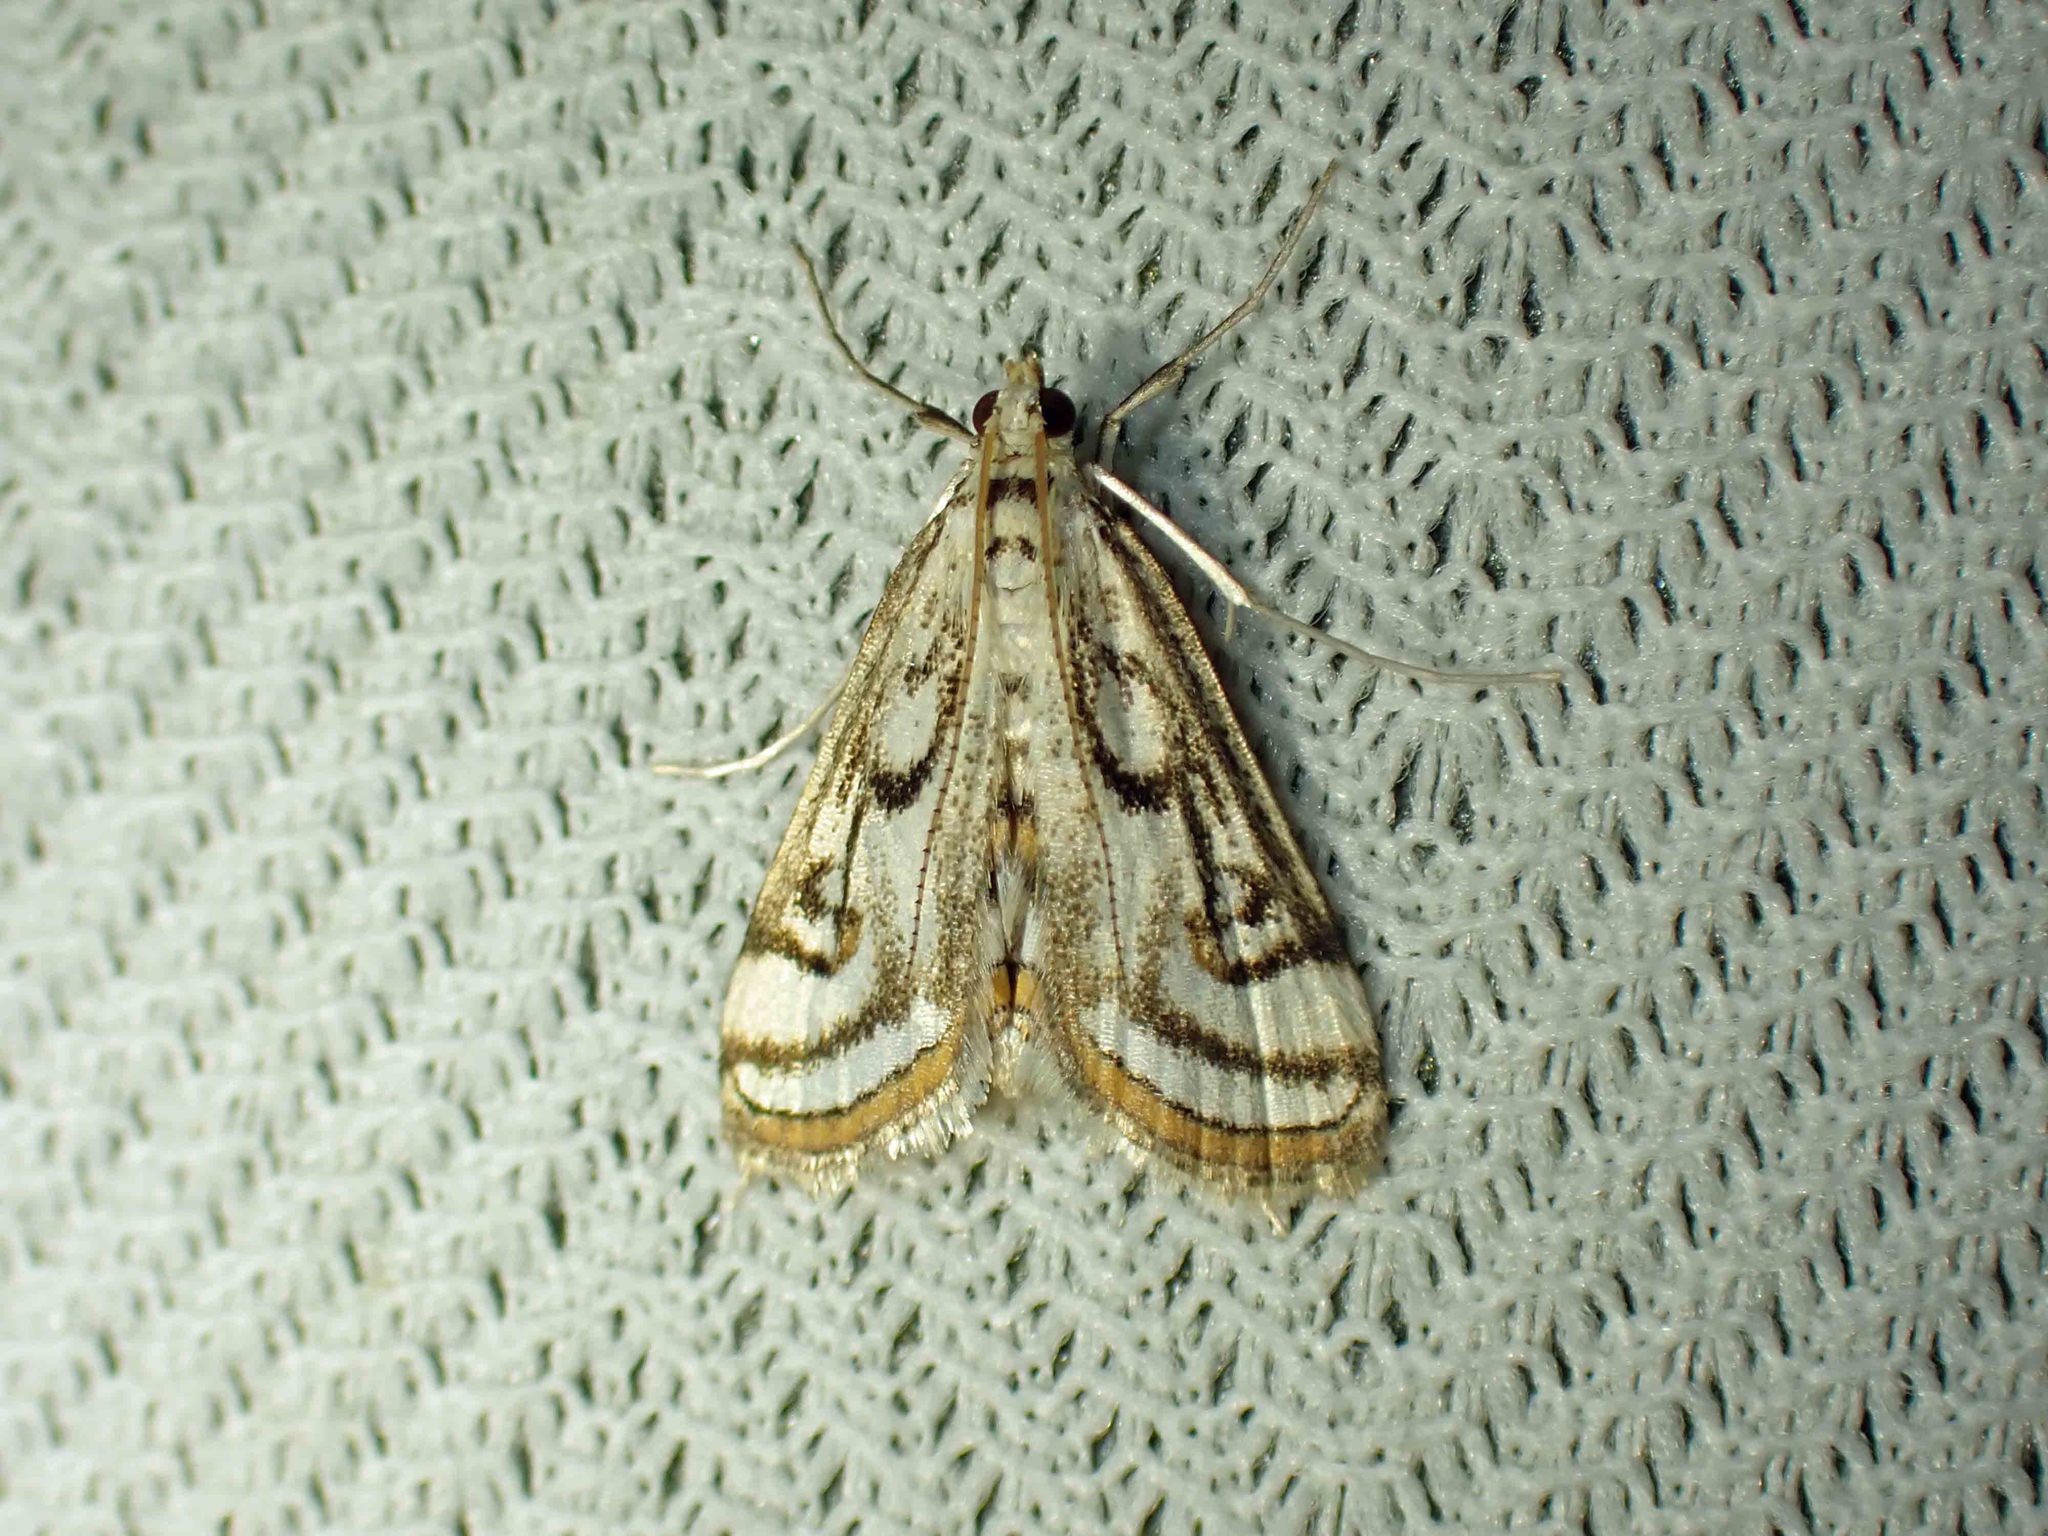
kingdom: Animalia
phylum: Arthropoda
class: Insecta
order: Lepidoptera
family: Crambidae
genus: Parapoynx
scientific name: Parapoynx badiusalis
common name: Chestnut-marked pondweed moth
